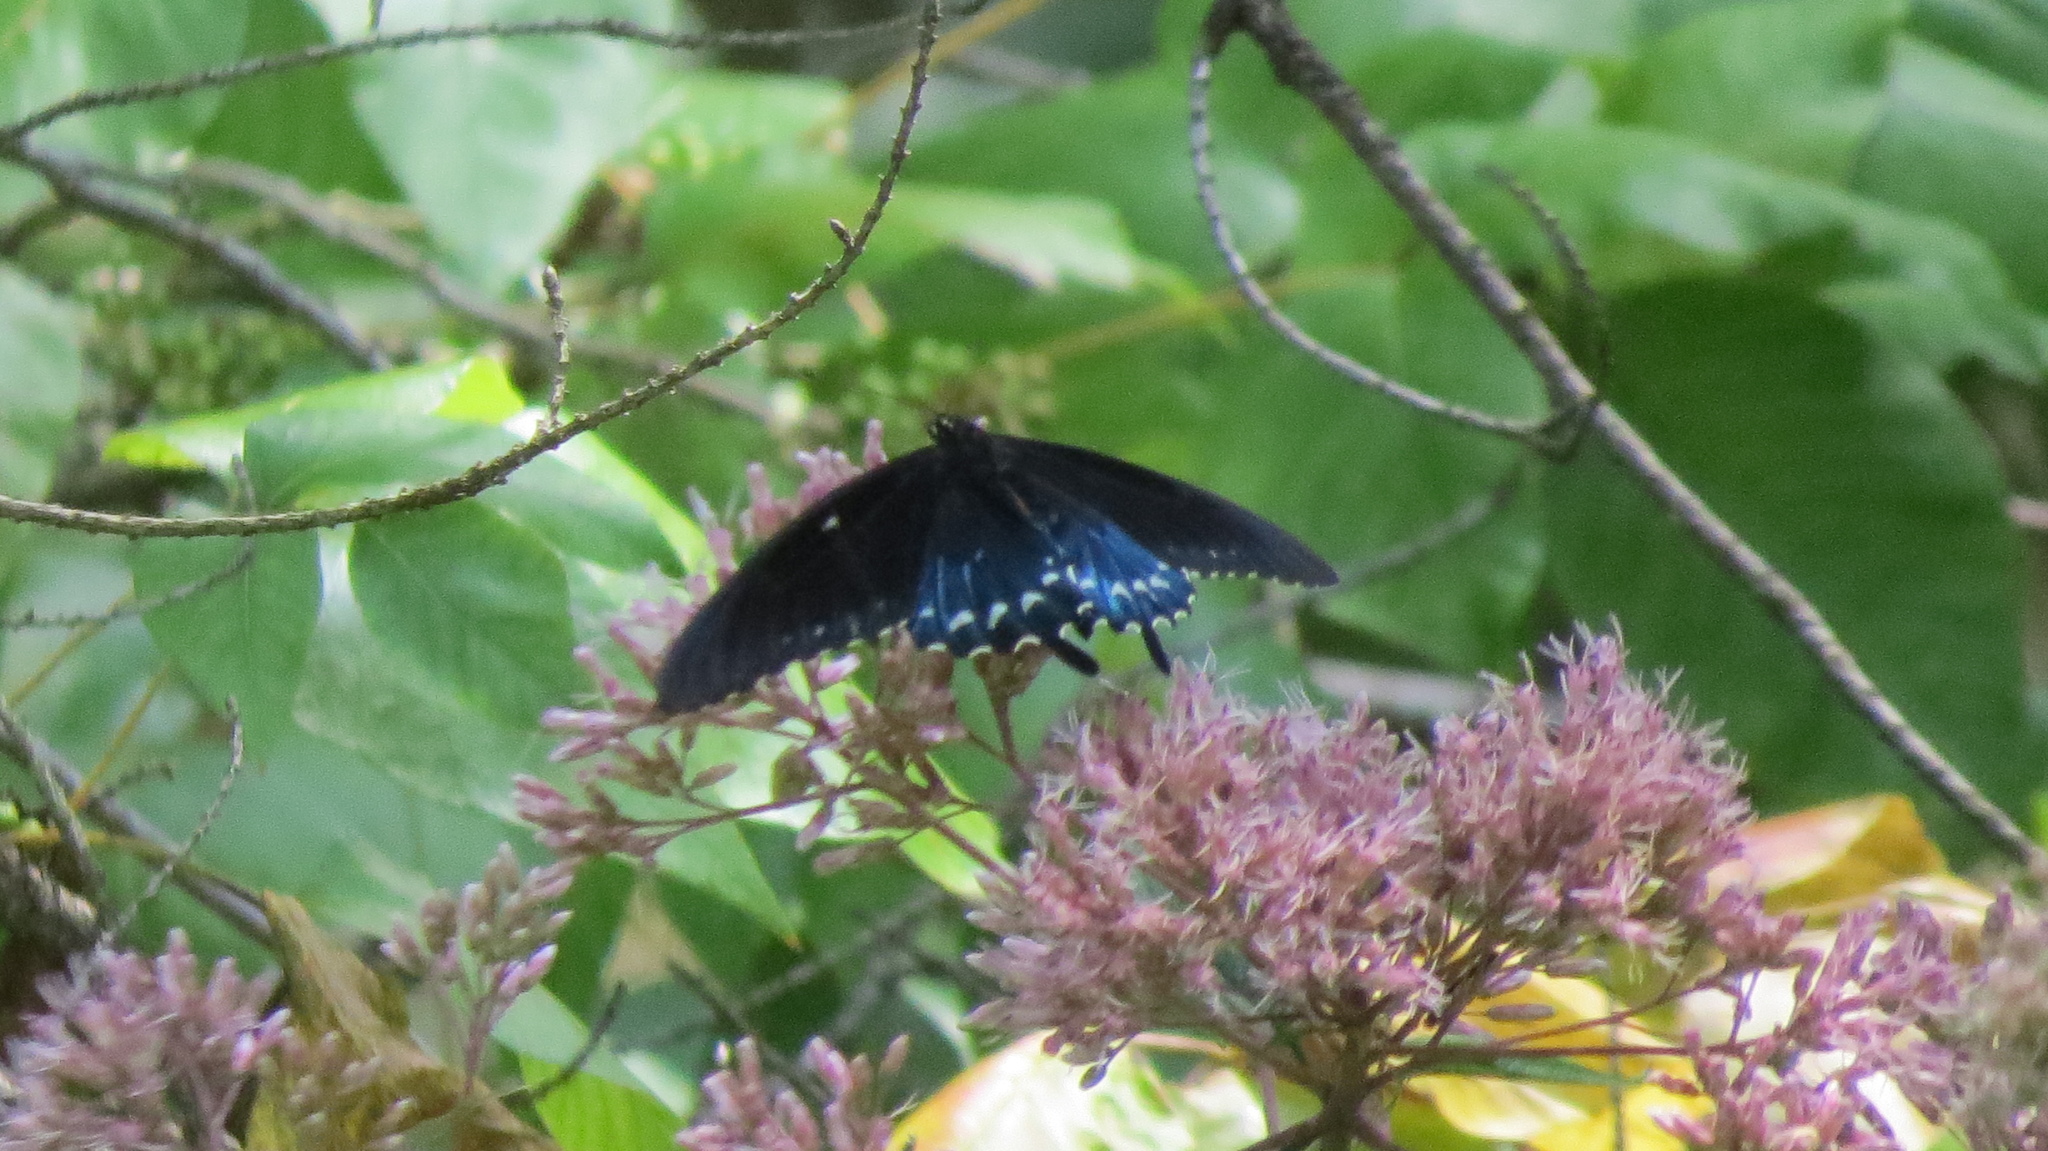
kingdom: Animalia
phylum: Arthropoda
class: Insecta
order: Lepidoptera
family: Papilionidae
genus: Battus
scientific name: Battus philenor
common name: Pipevine swallowtail
